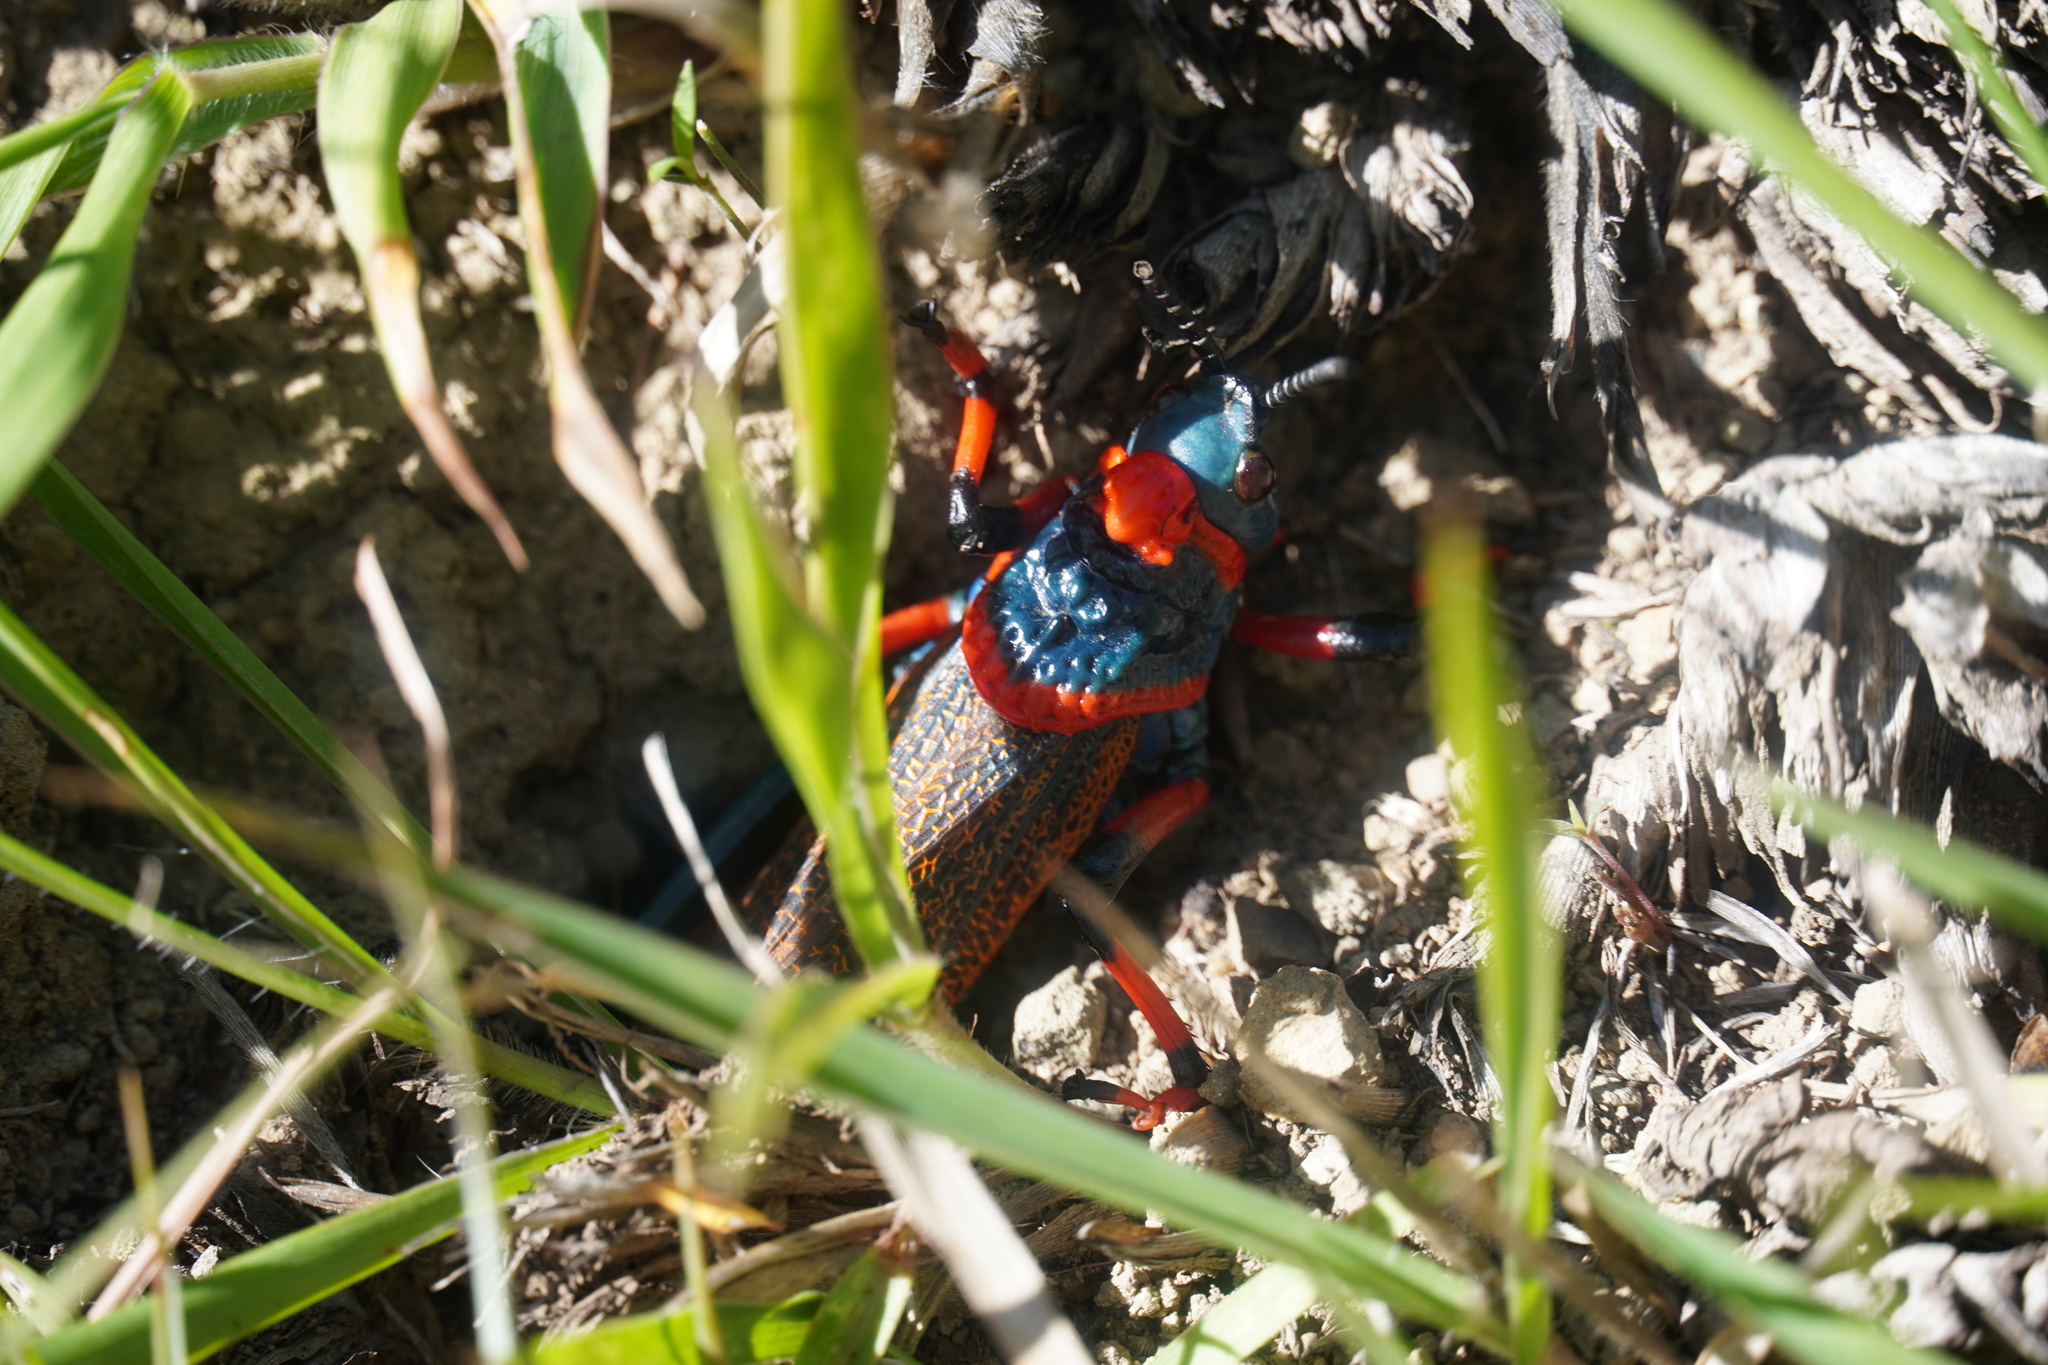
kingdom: Animalia
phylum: Arthropoda
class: Insecta
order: Orthoptera
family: Pyrgomorphidae
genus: Dictyophorus
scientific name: Dictyophorus spumans
